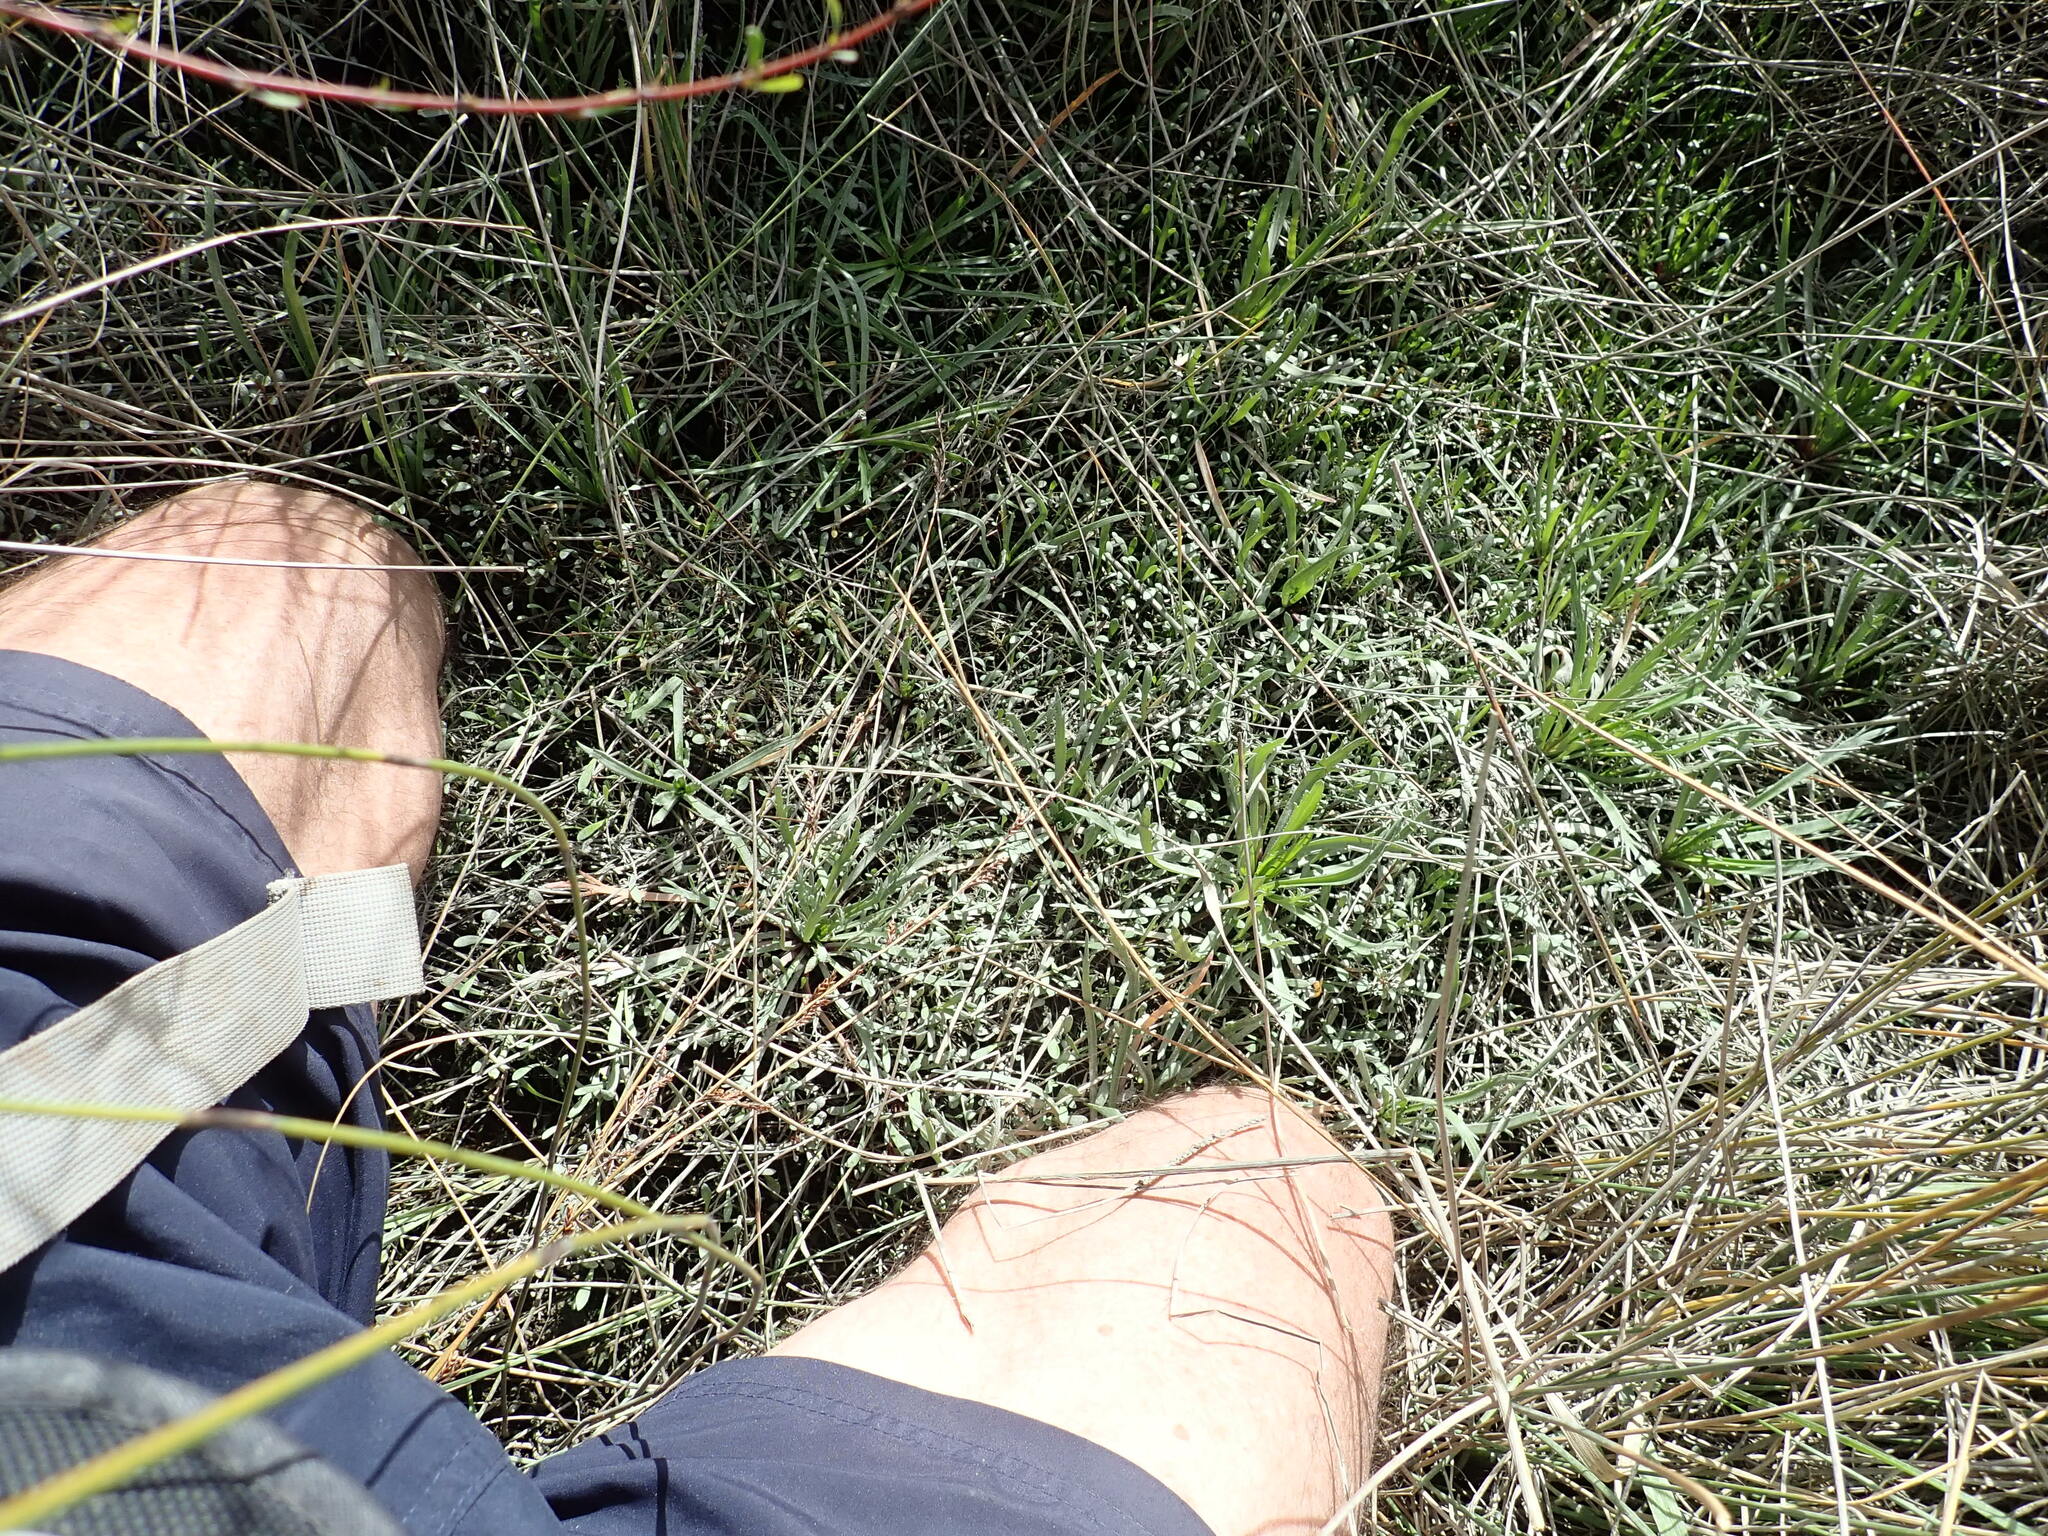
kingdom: Plantae
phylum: Tracheophyta
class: Magnoliopsida
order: Lamiales
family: Plantaginaceae
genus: Plantago
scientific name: Plantago coronopus
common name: Buck's-horn plantain
